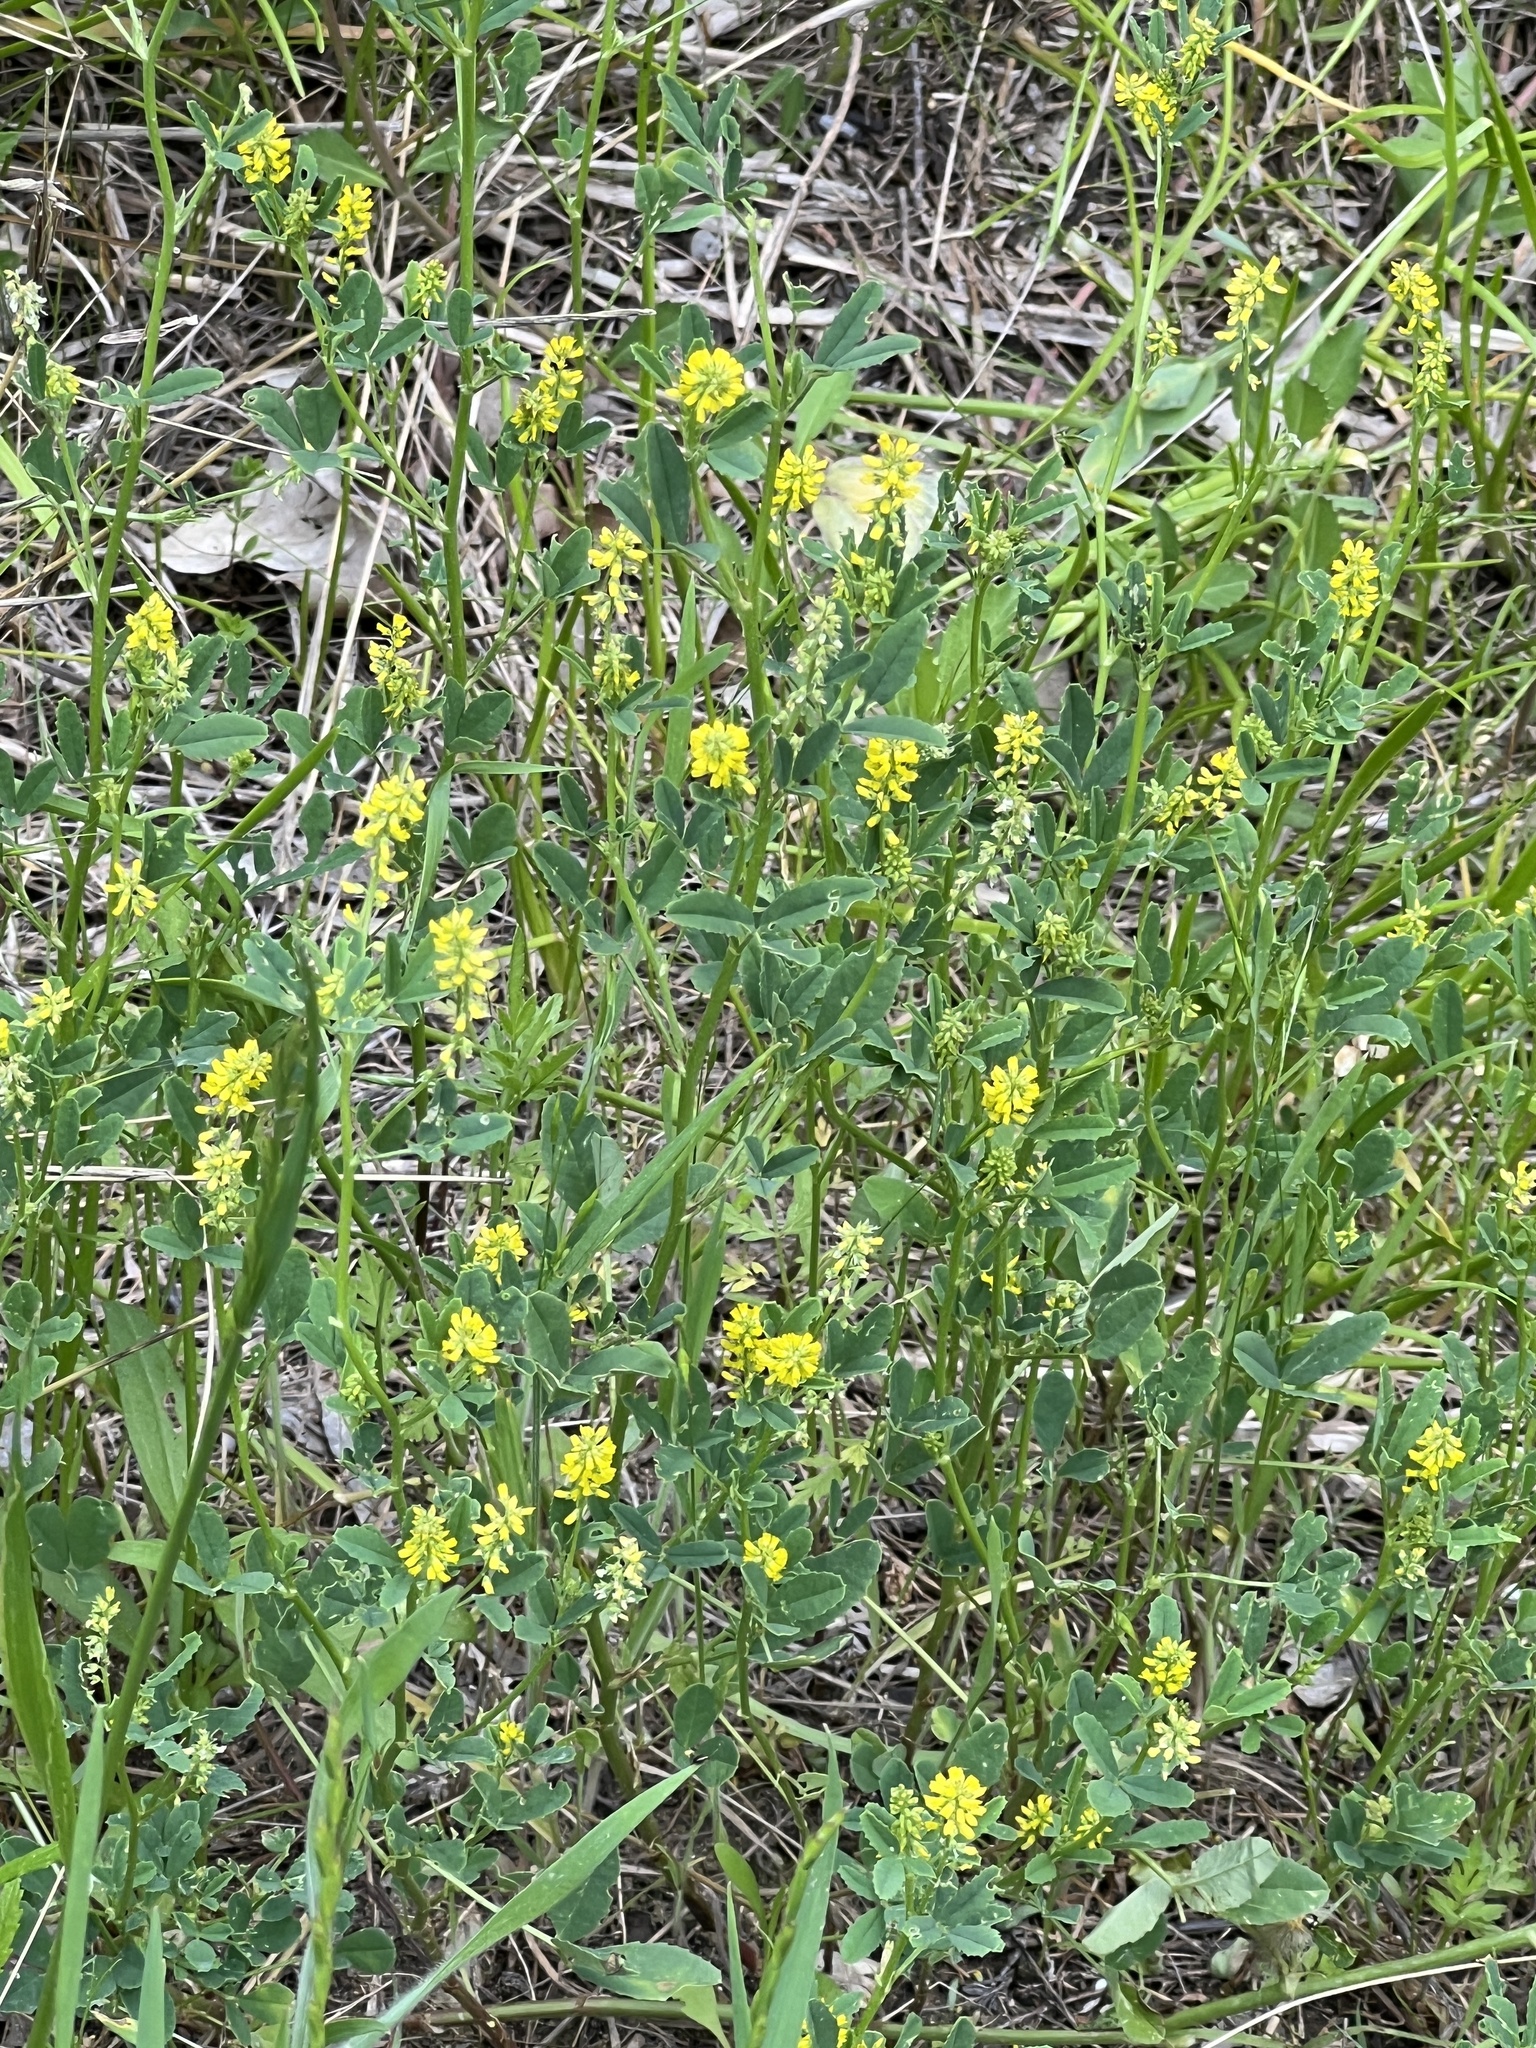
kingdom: Plantae
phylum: Tracheophyta
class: Magnoliopsida
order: Fabales
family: Fabaceae
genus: Melilotus
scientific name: Melilotus indicus
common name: Small melilot
